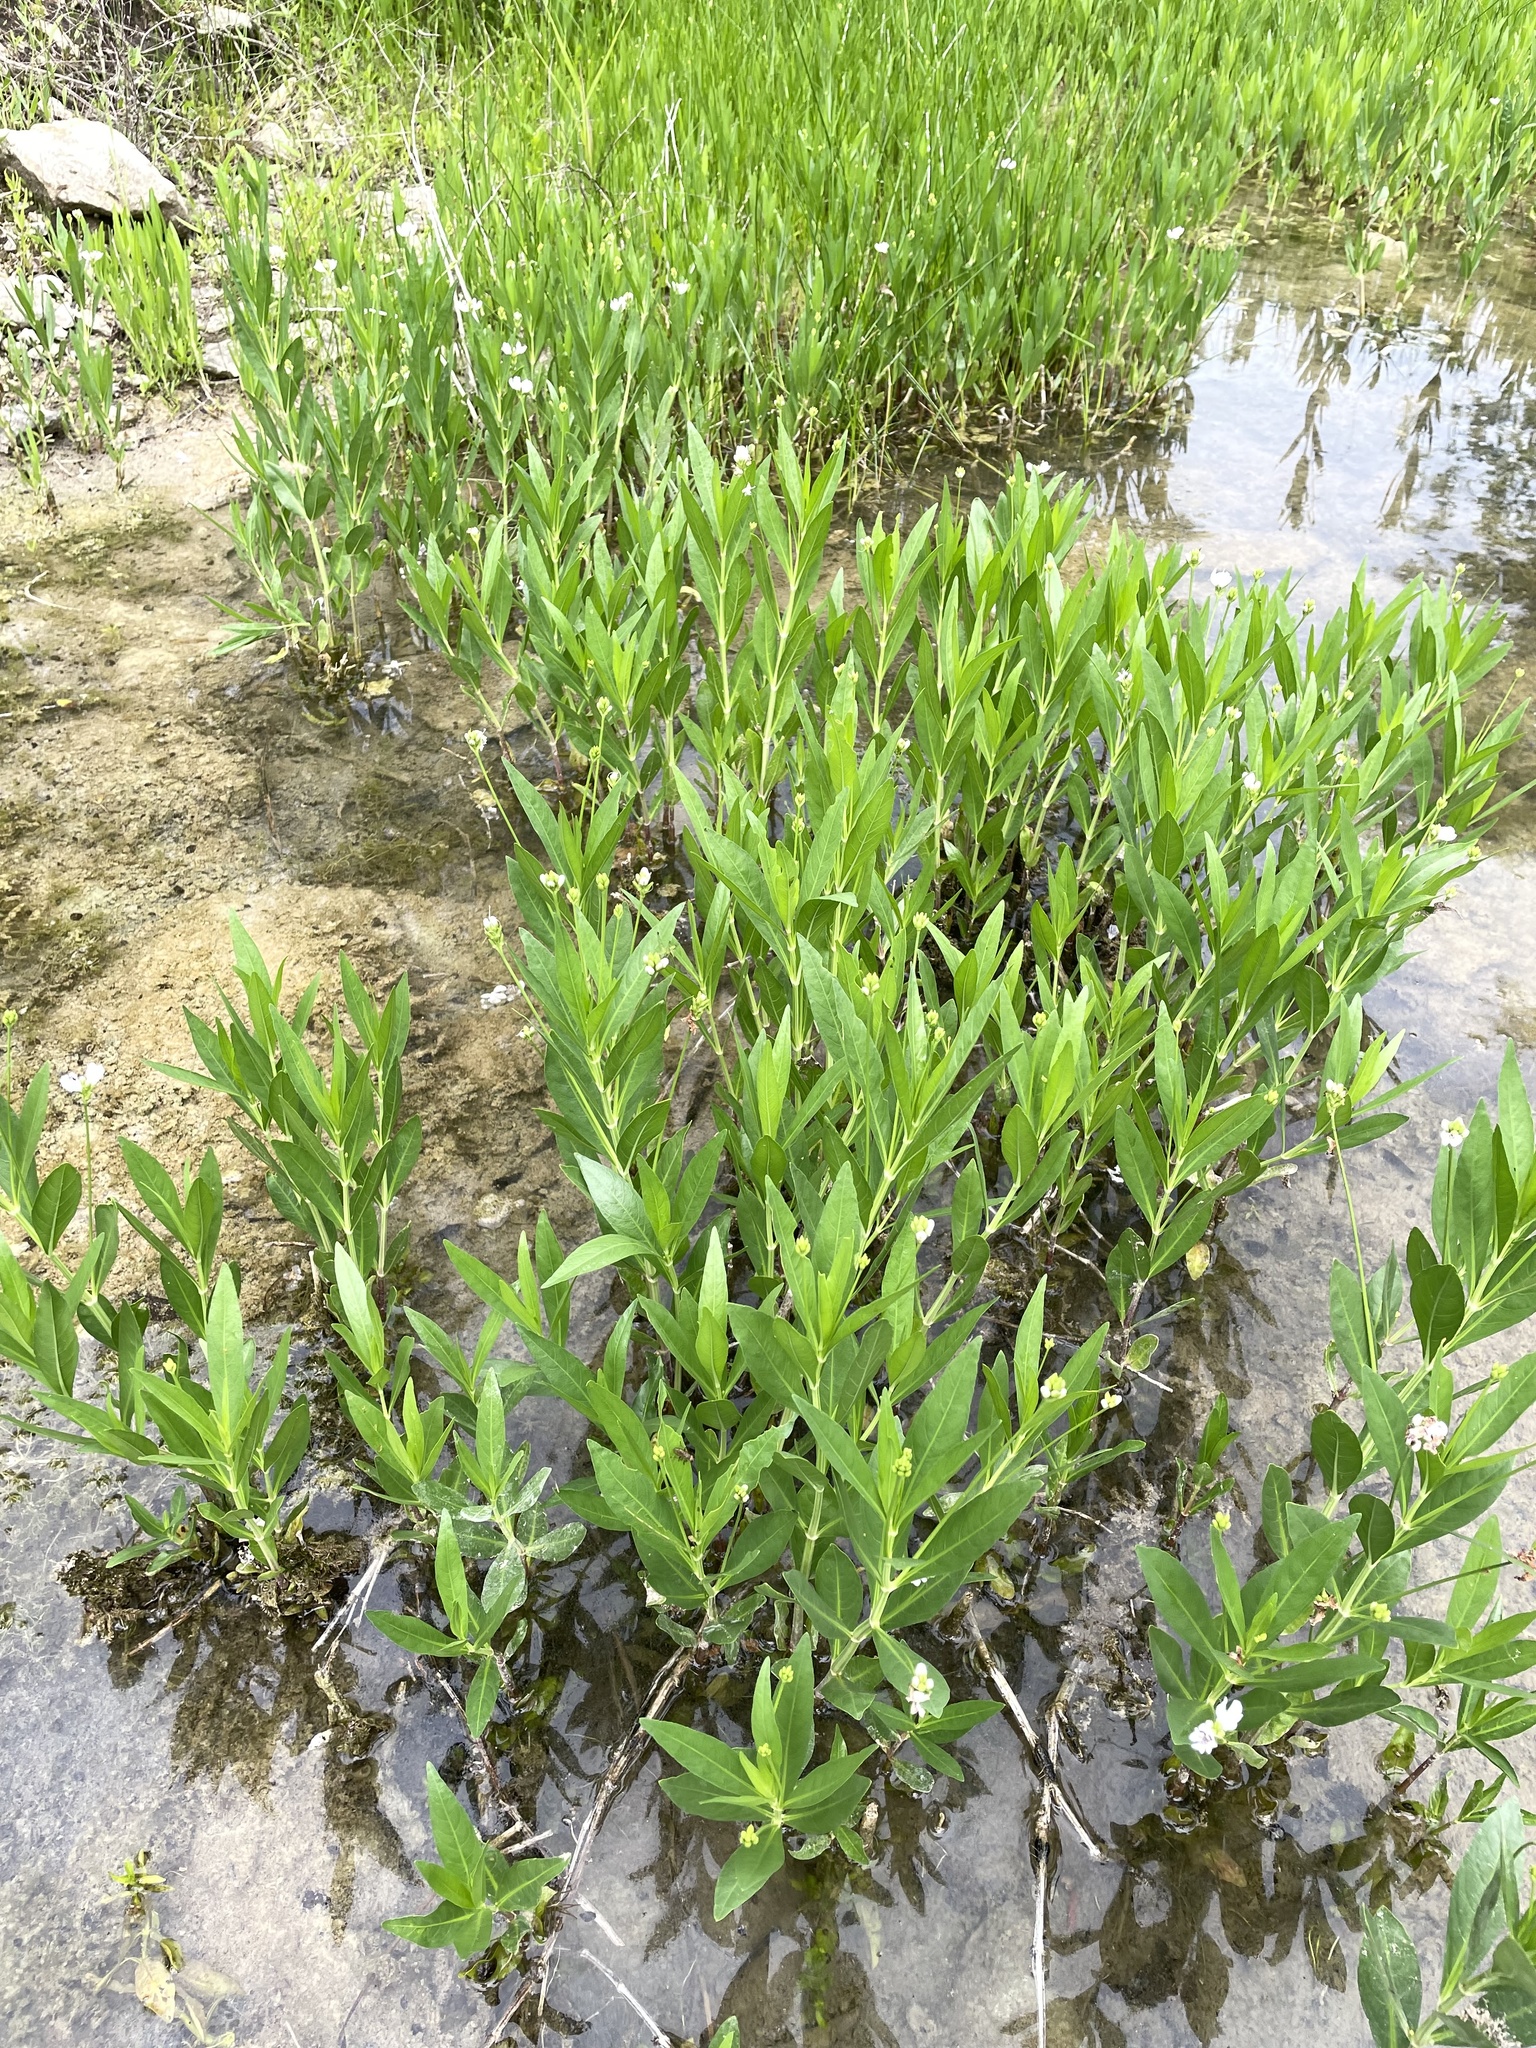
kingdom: Plantae
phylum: Tracheophyta
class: Magnoliopsida
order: Lamiales
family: Acanthaceae
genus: Dianthera
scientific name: Dianthera americana
